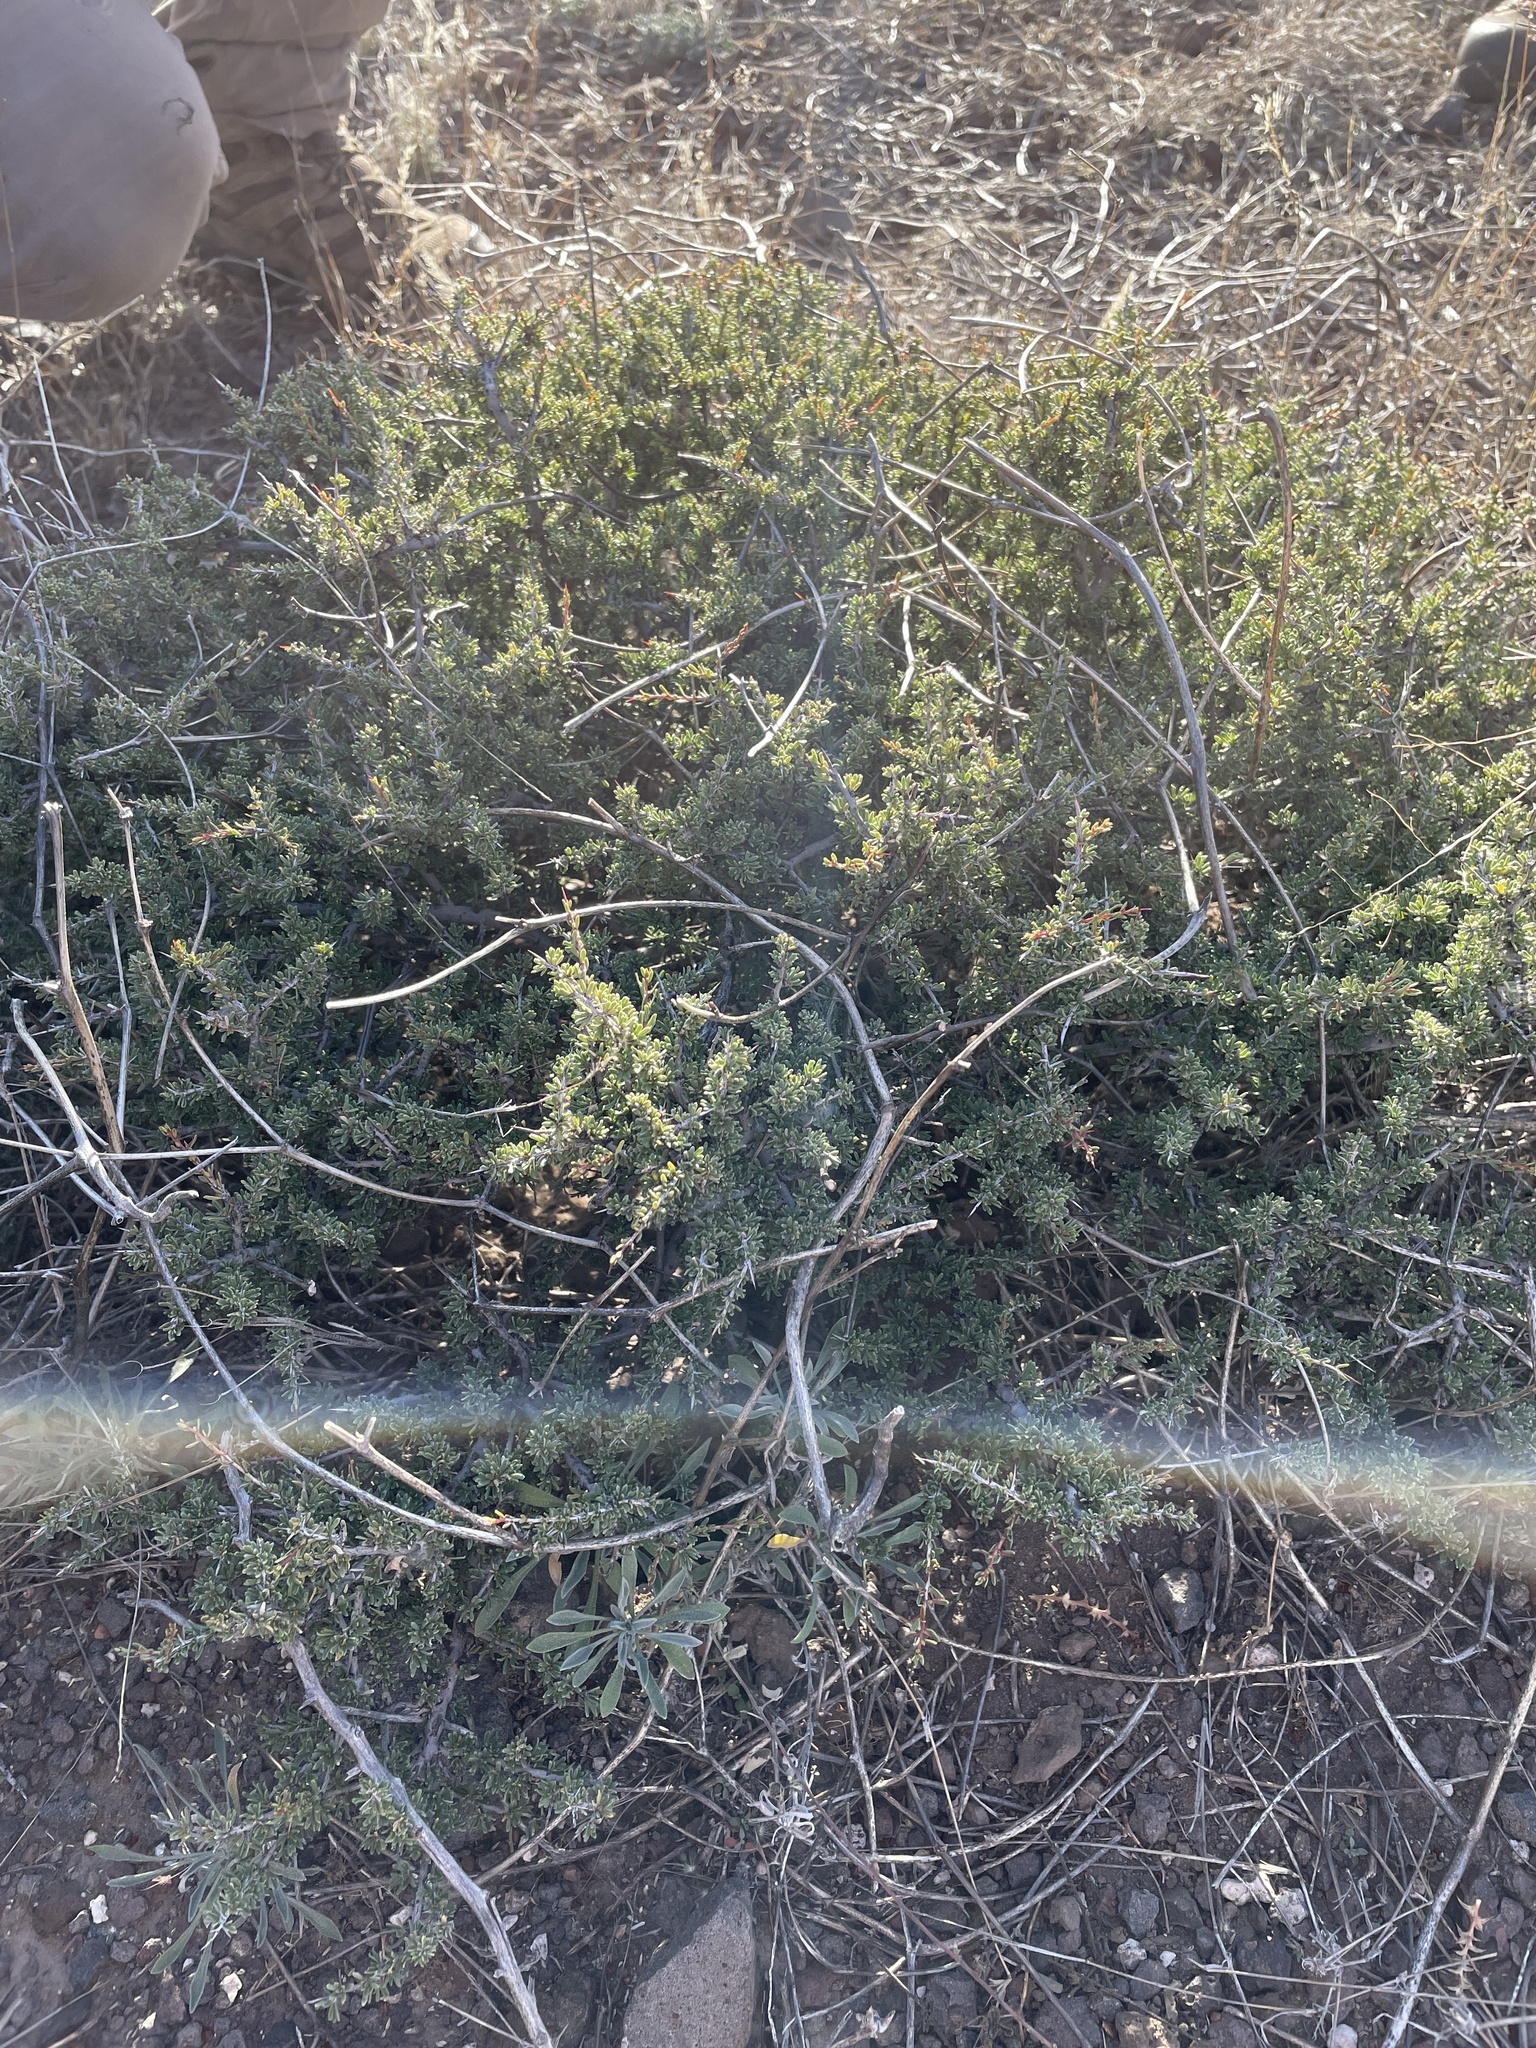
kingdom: Plantae
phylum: Tracheophyta
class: Magnoliopsida
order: Rosales
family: Rhamnaceae
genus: Condalia
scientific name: Condalia ericoides
